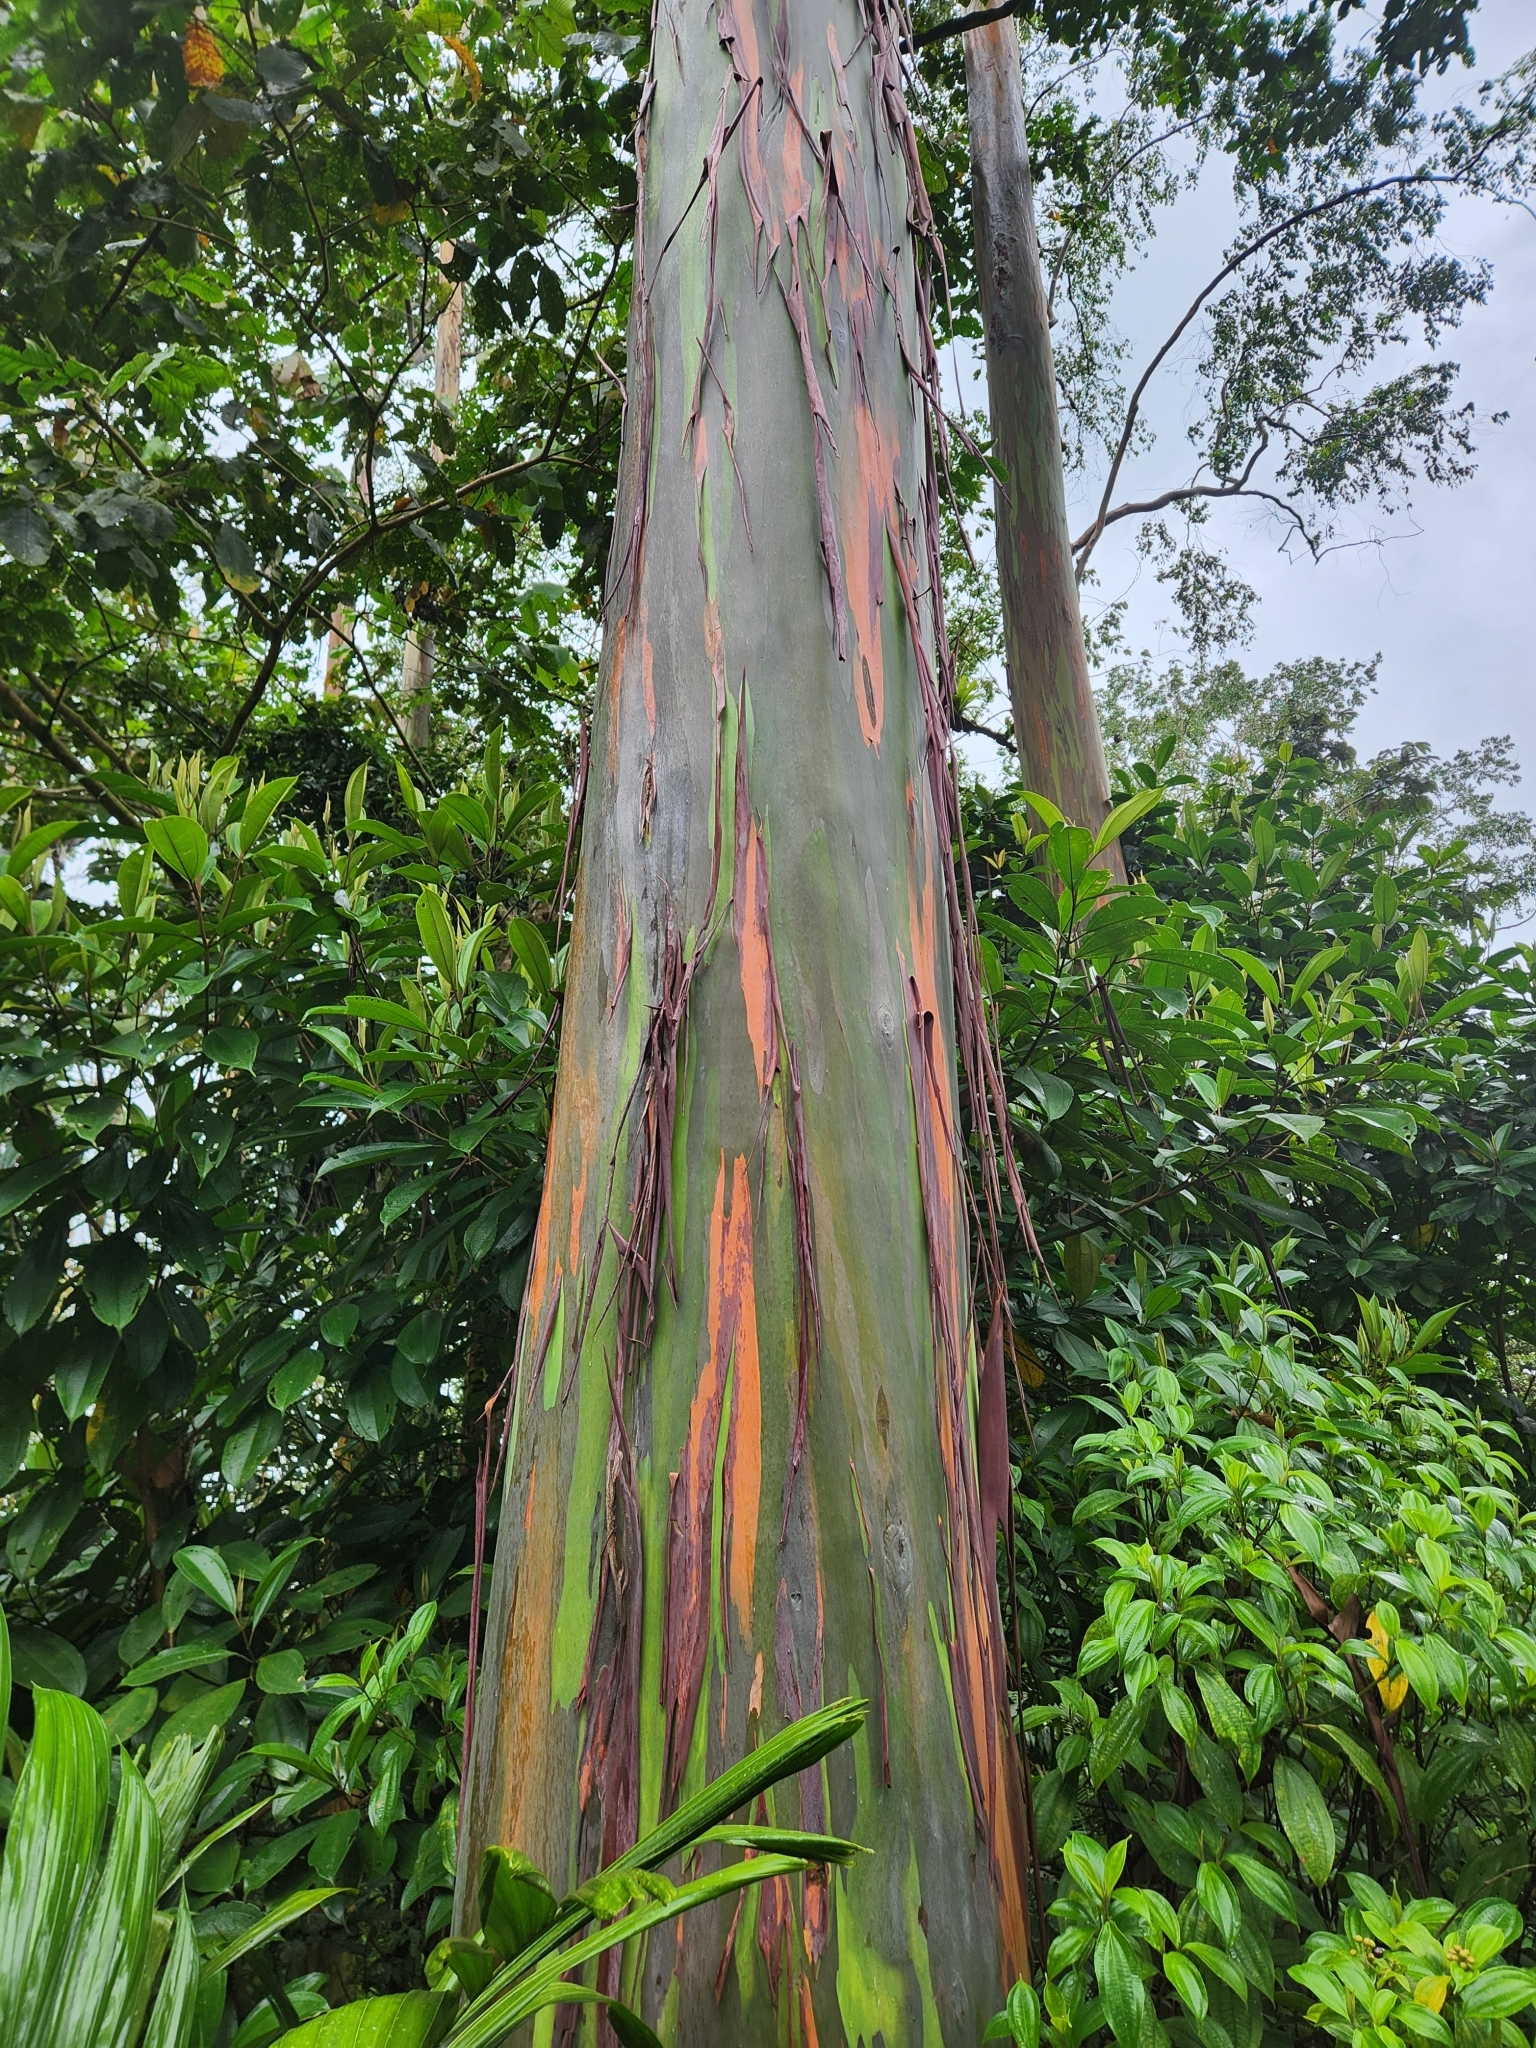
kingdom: Plantae
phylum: Tracheophyta
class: Magnoliopsida
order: Myrtales
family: Myrtaceae
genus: Eucalyptus
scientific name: Eucalyptus deglupta
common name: Mindanao gum
